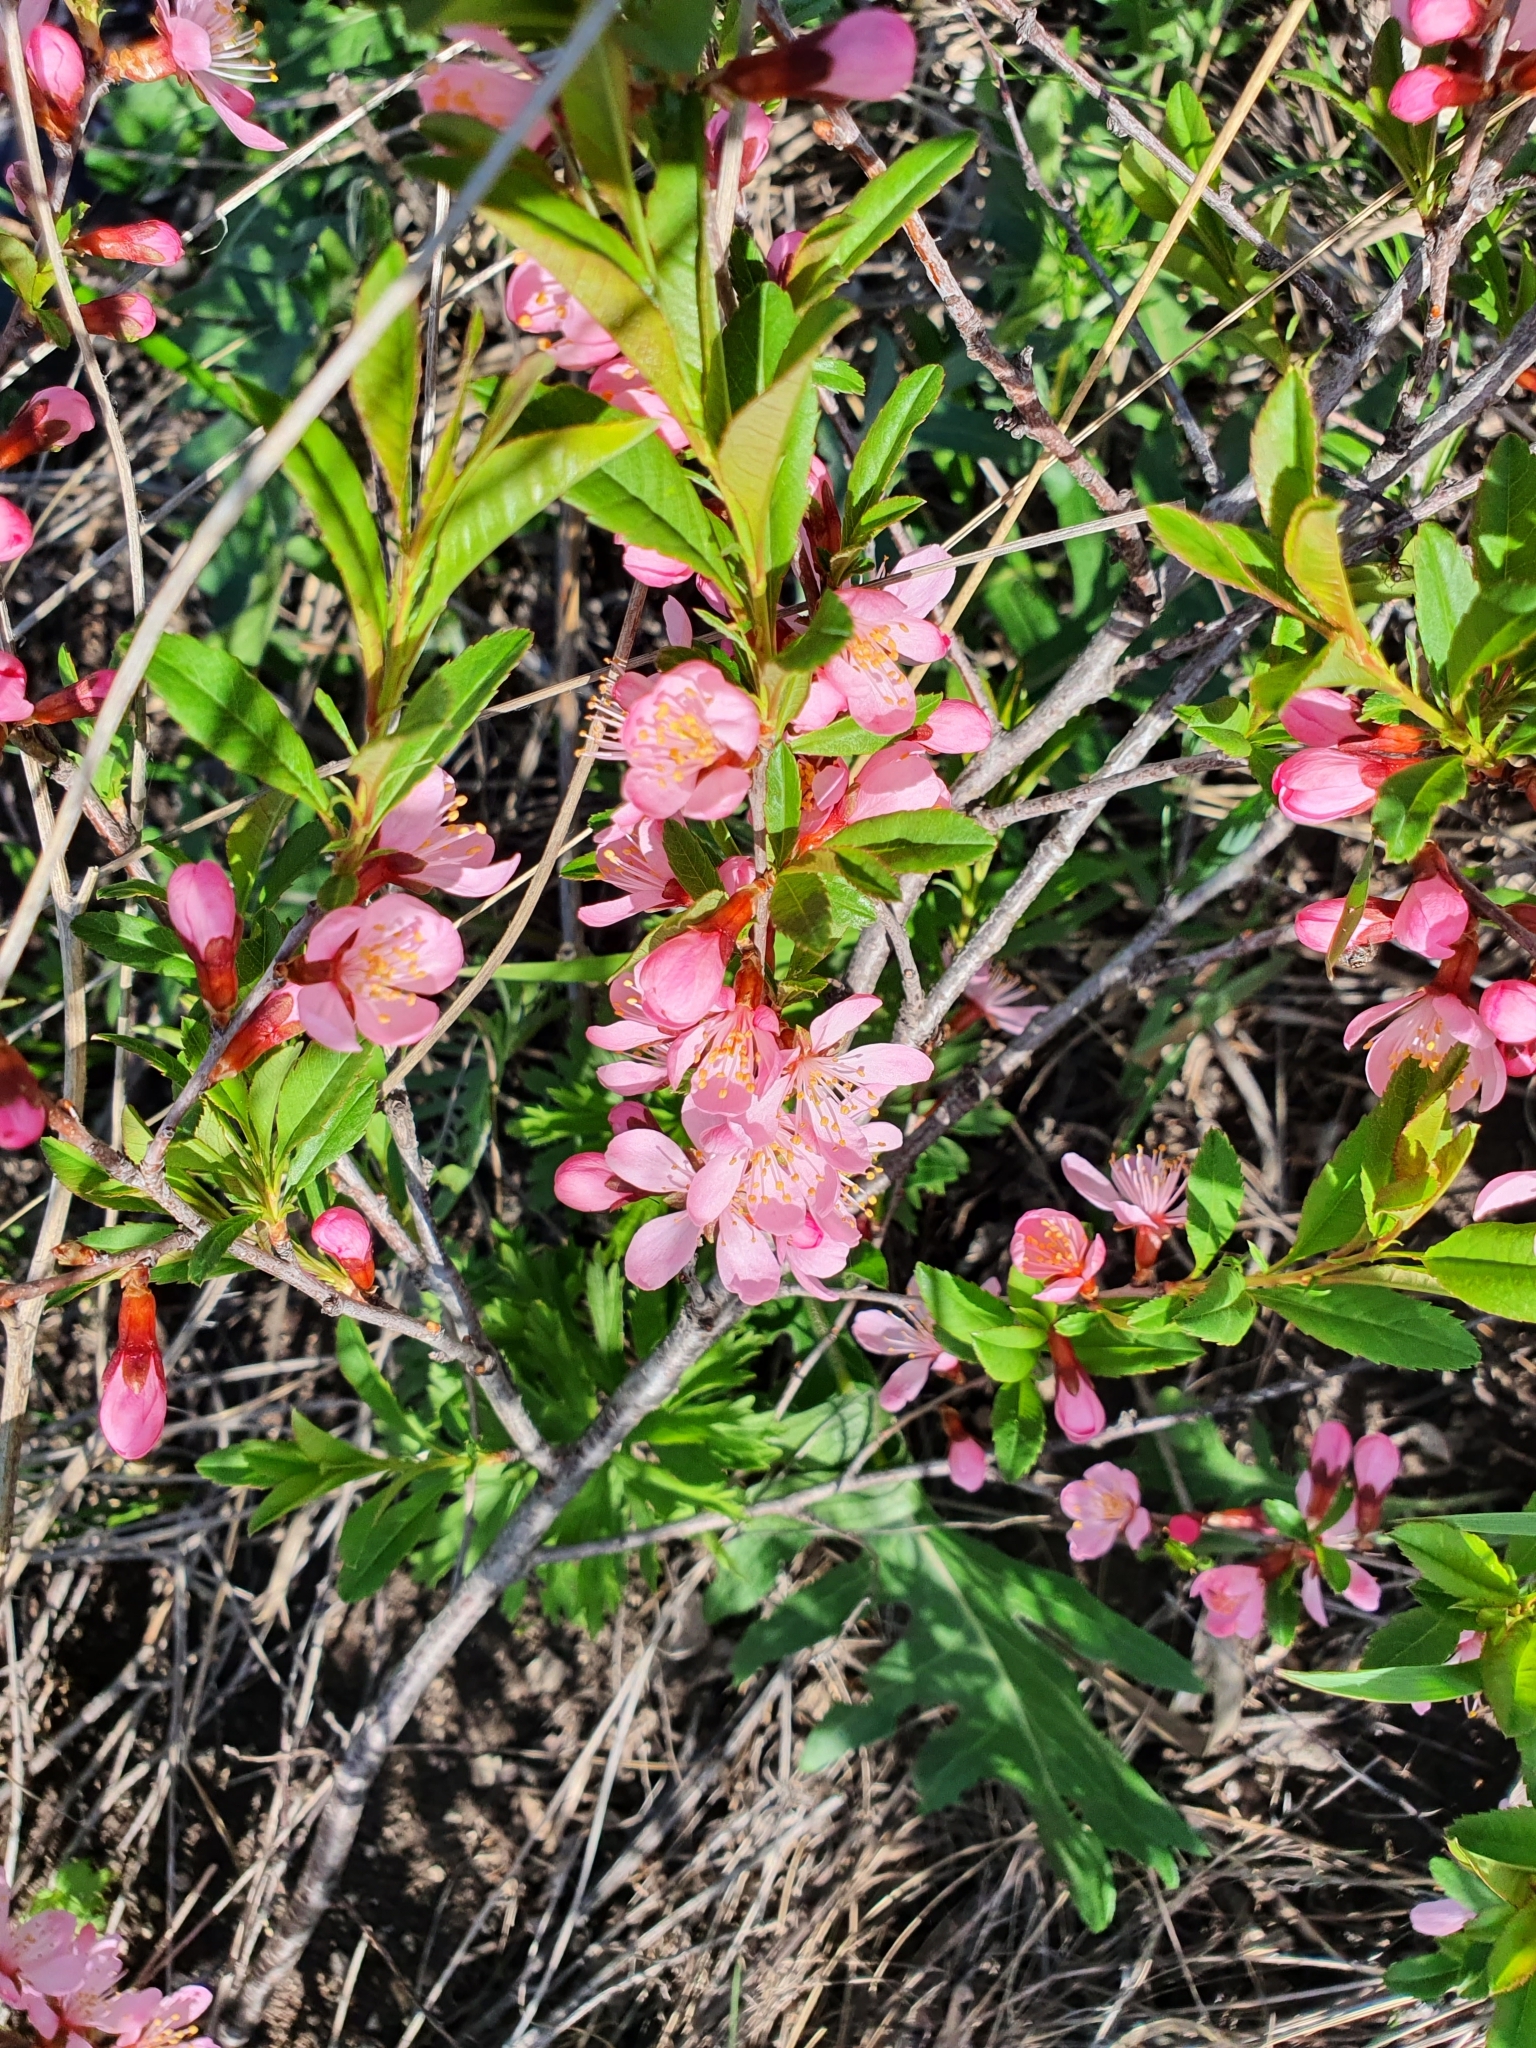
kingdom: Plantae
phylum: Tracheophyta
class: Magnoliopsida
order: Rosales
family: Rosaceae
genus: Prunus
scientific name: Prunus tenella
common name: Dwarf russian almond
